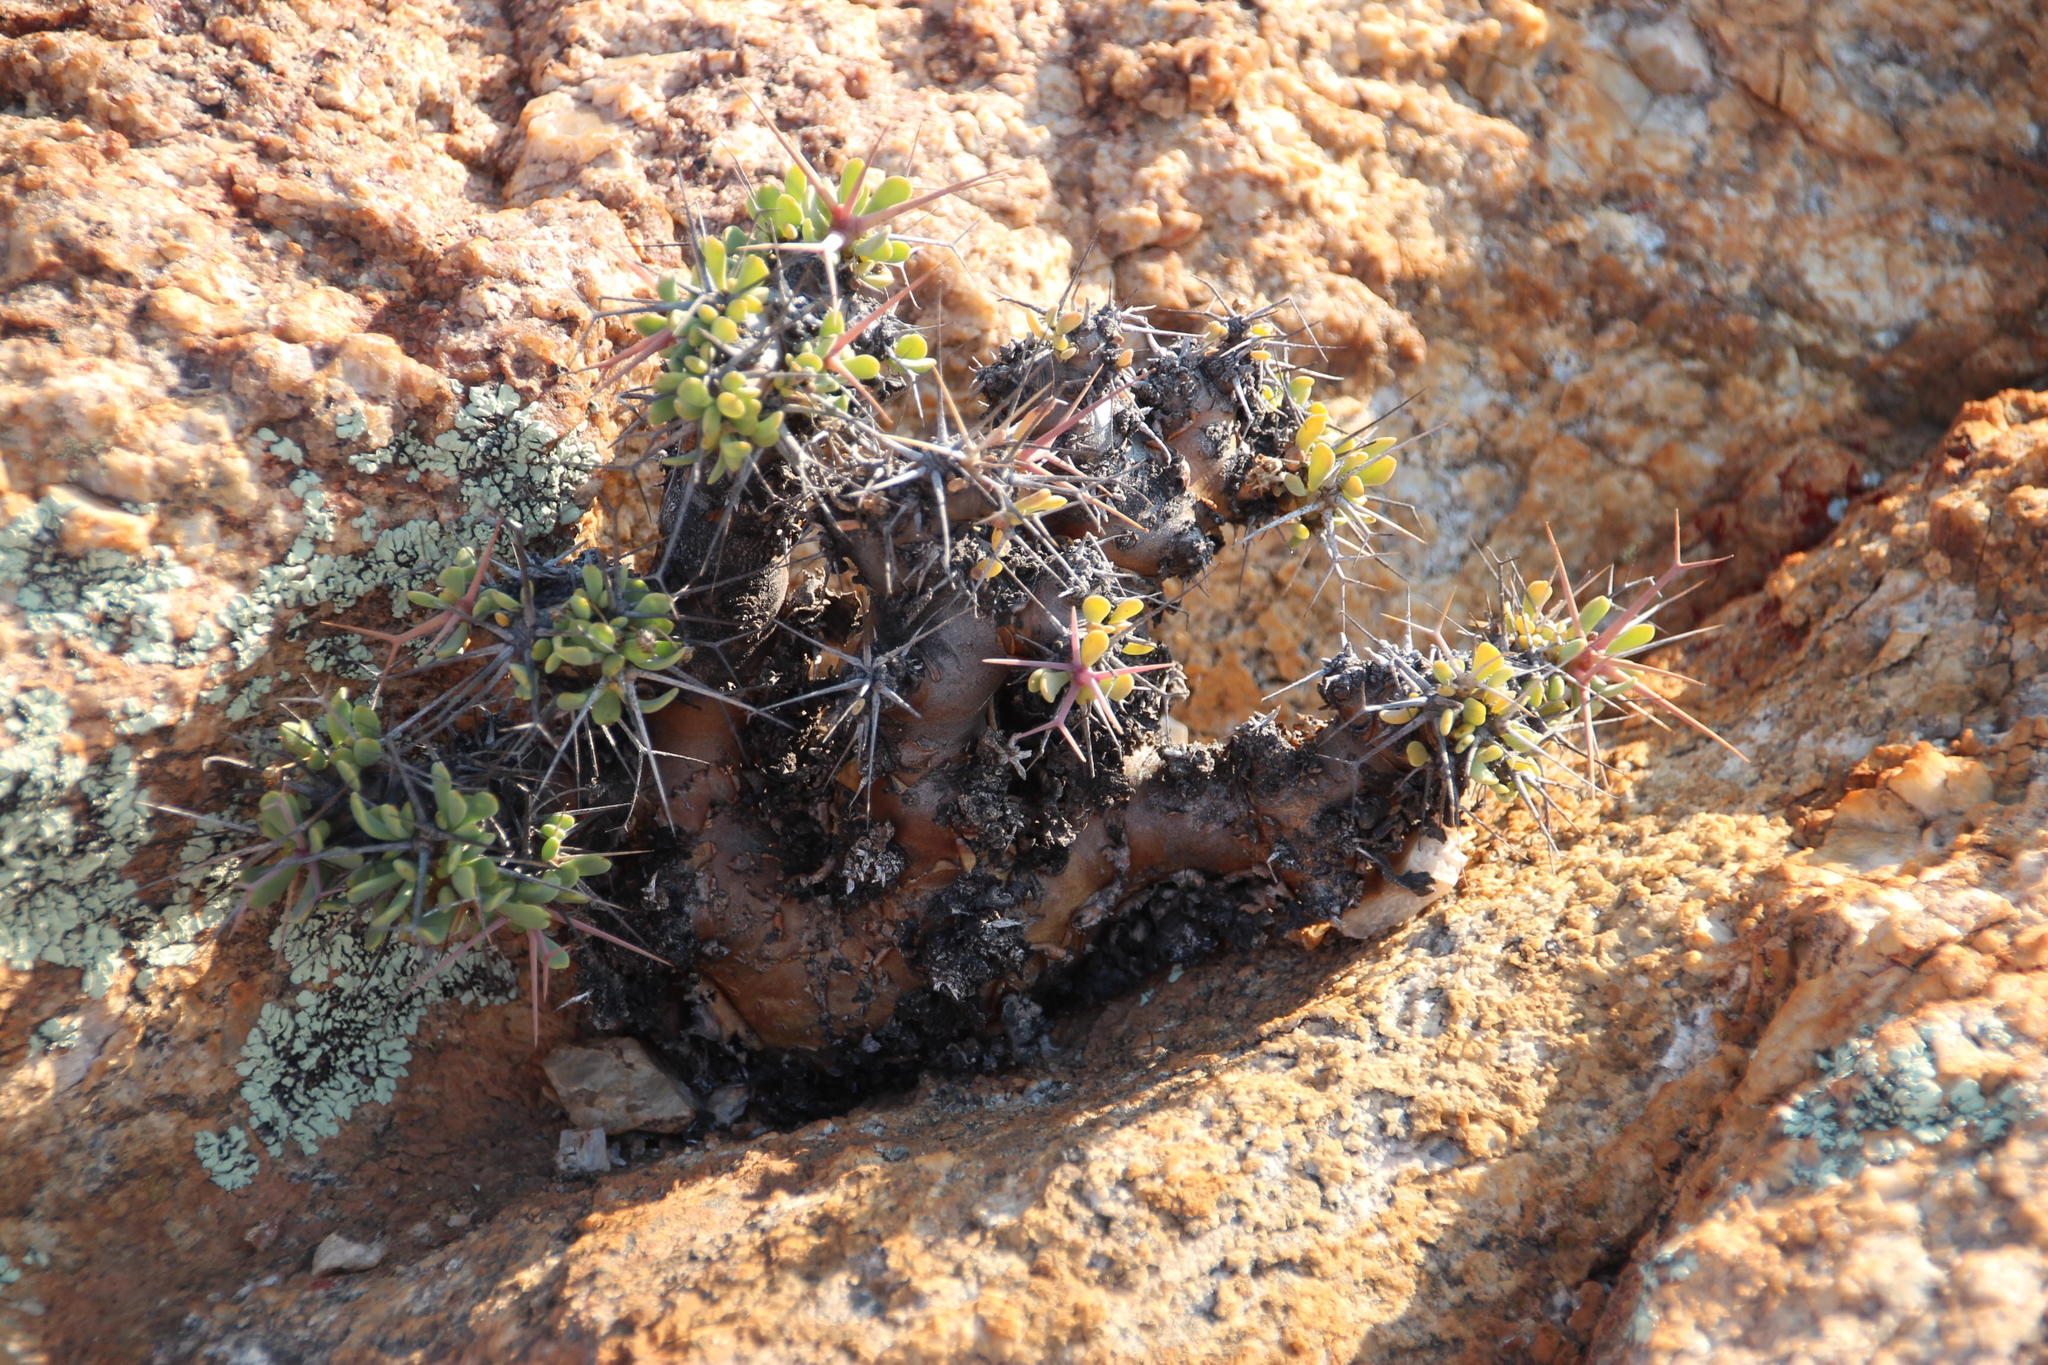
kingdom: Plantae
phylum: Tracheophyta
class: Magnoliopsida
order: Asterales
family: Asteraceae
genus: Othonna
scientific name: Othonna euphorbioides
